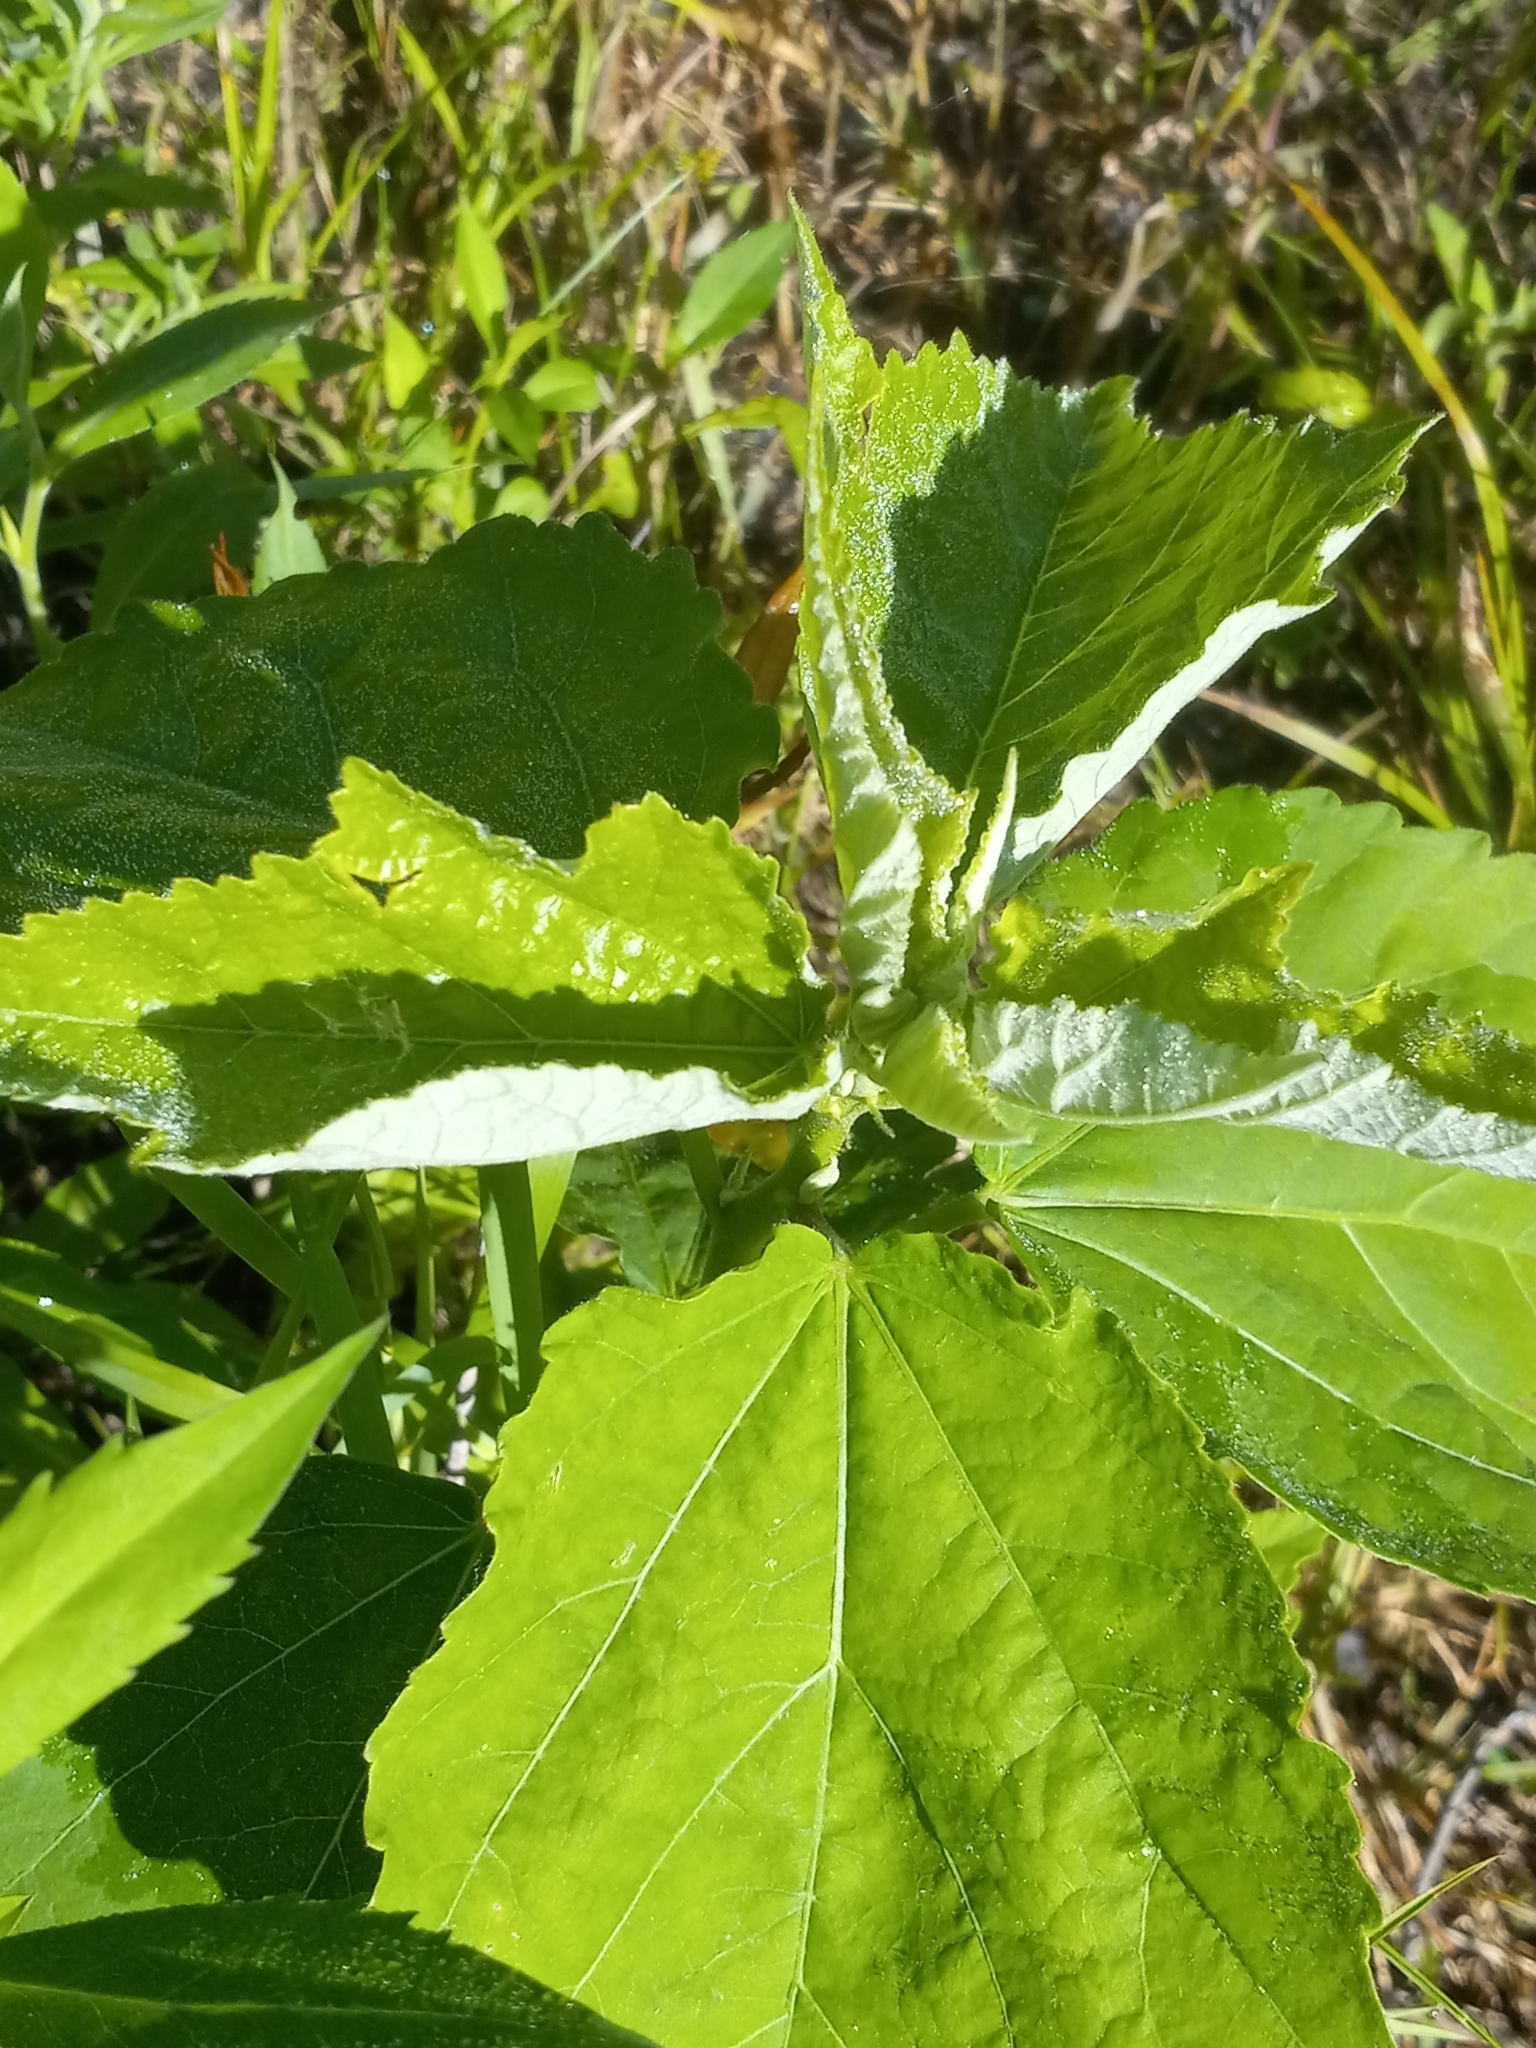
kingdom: Plantae
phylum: Tracheophyta
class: Magnoliopsida
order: Malvales
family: Malvaceae
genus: Hibiscus
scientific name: Hibiscus moscheutos
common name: Common rose-mallow
